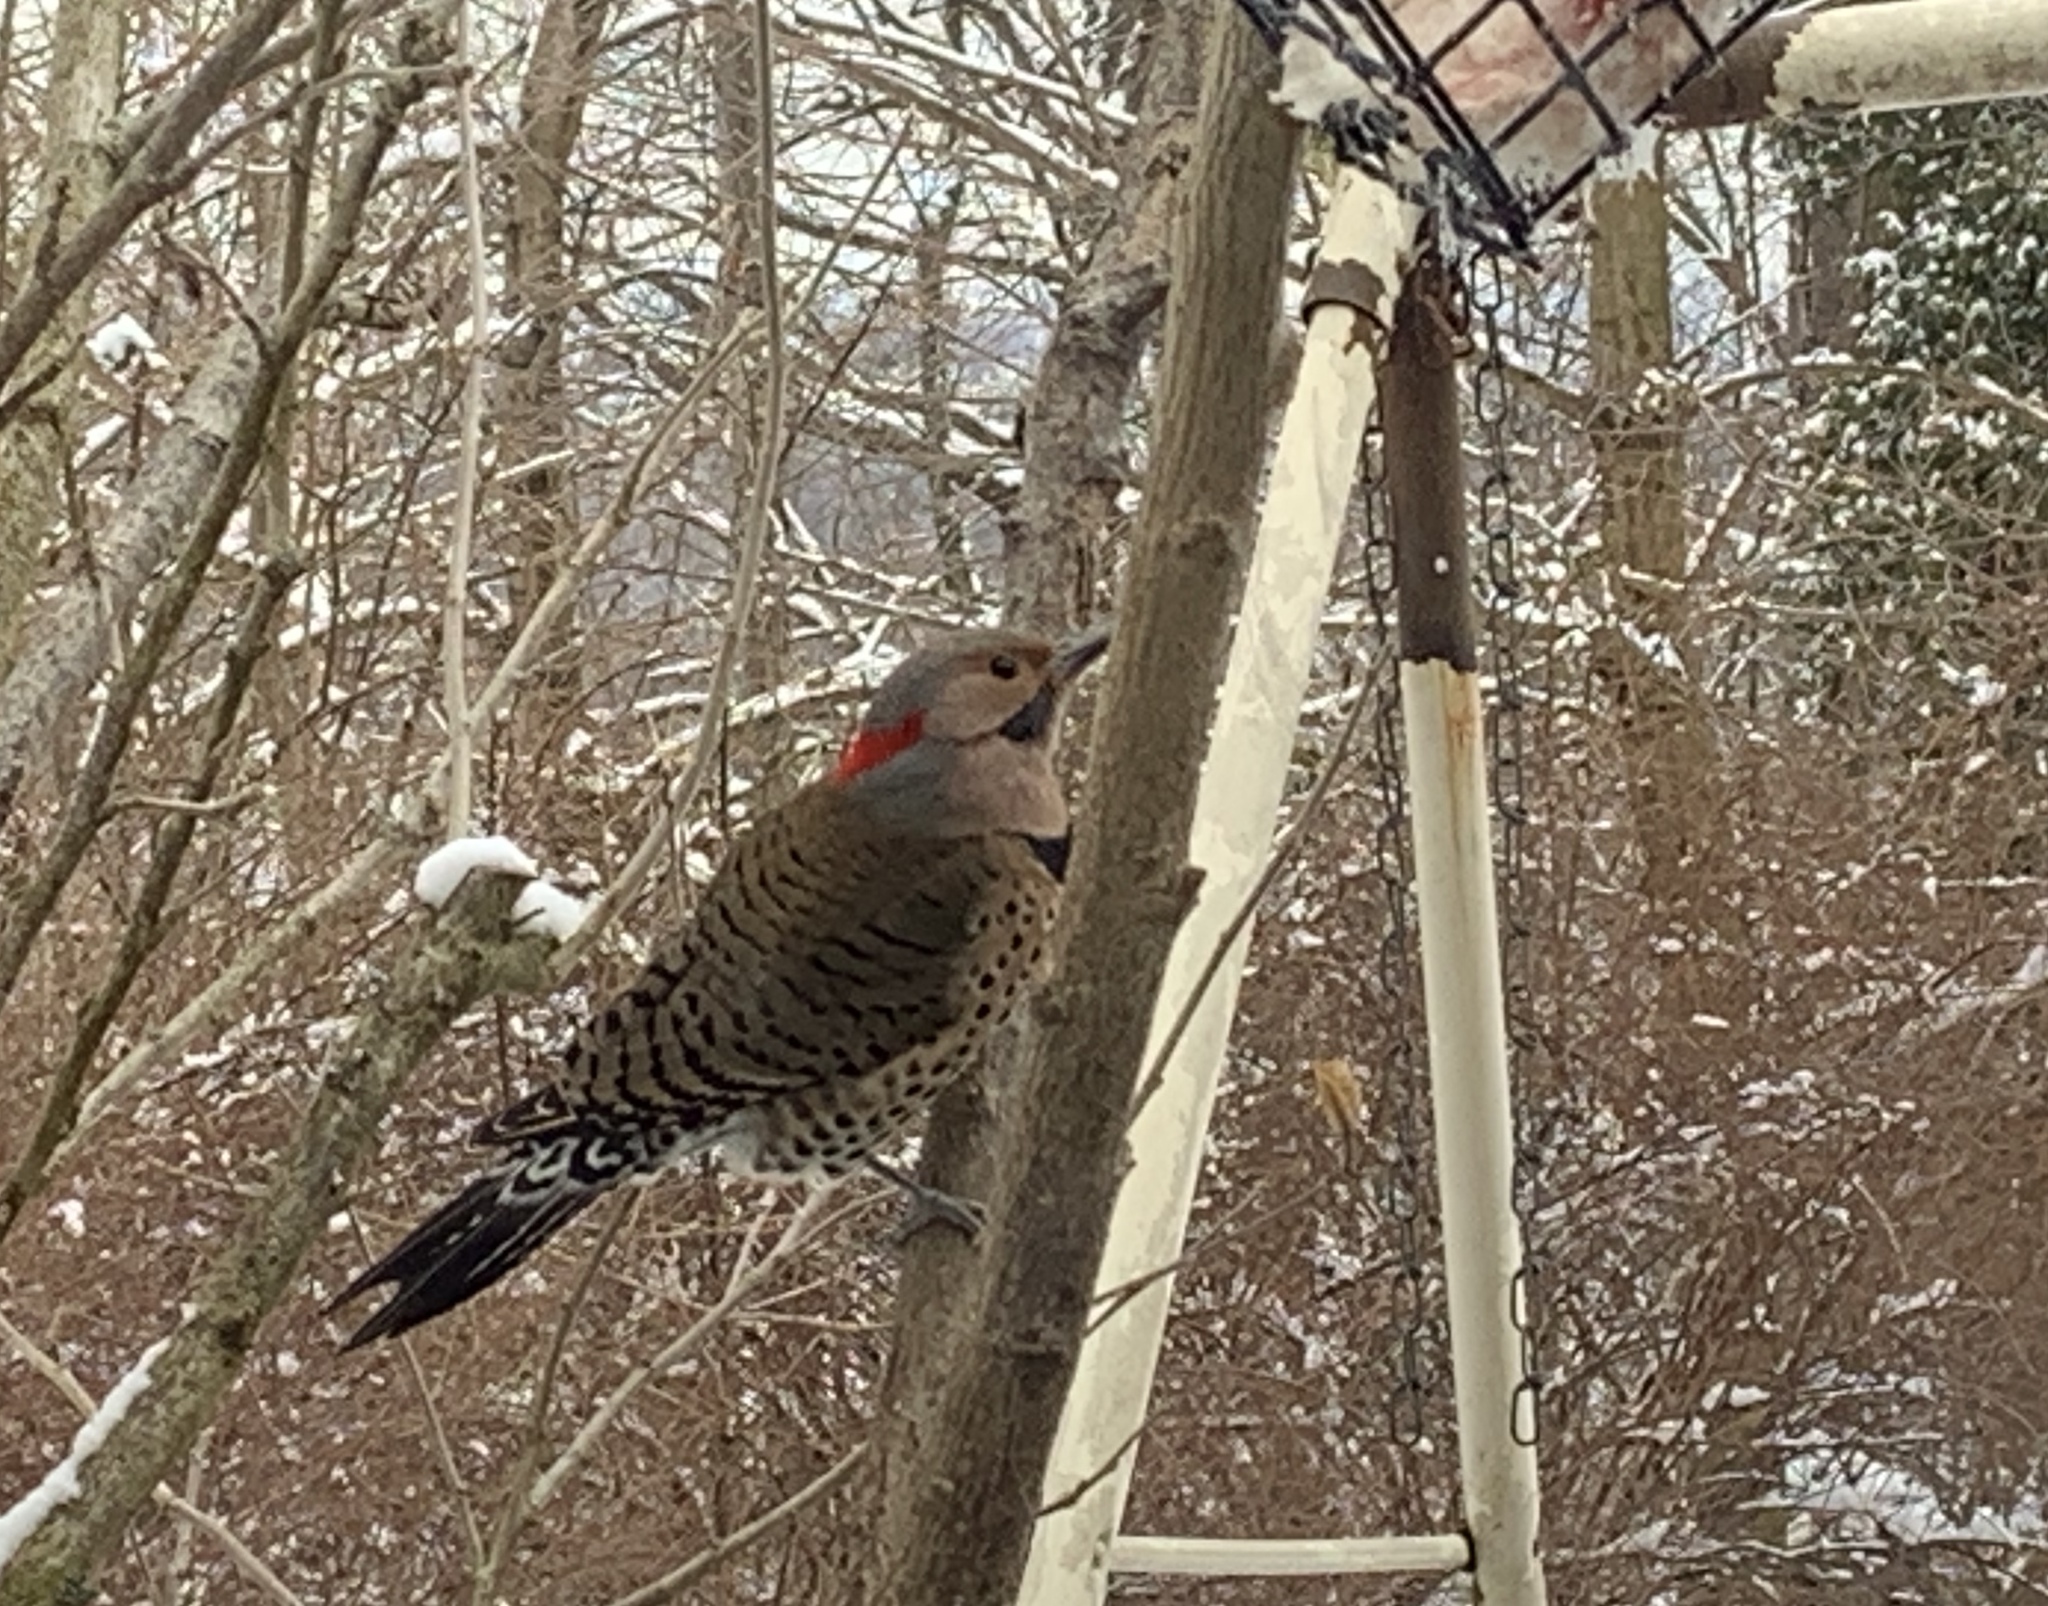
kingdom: Animalia
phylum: Chordata
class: Aves
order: Piciformes
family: Picidae
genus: Colaptes
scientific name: Colaptes auratus
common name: Northern flicker
